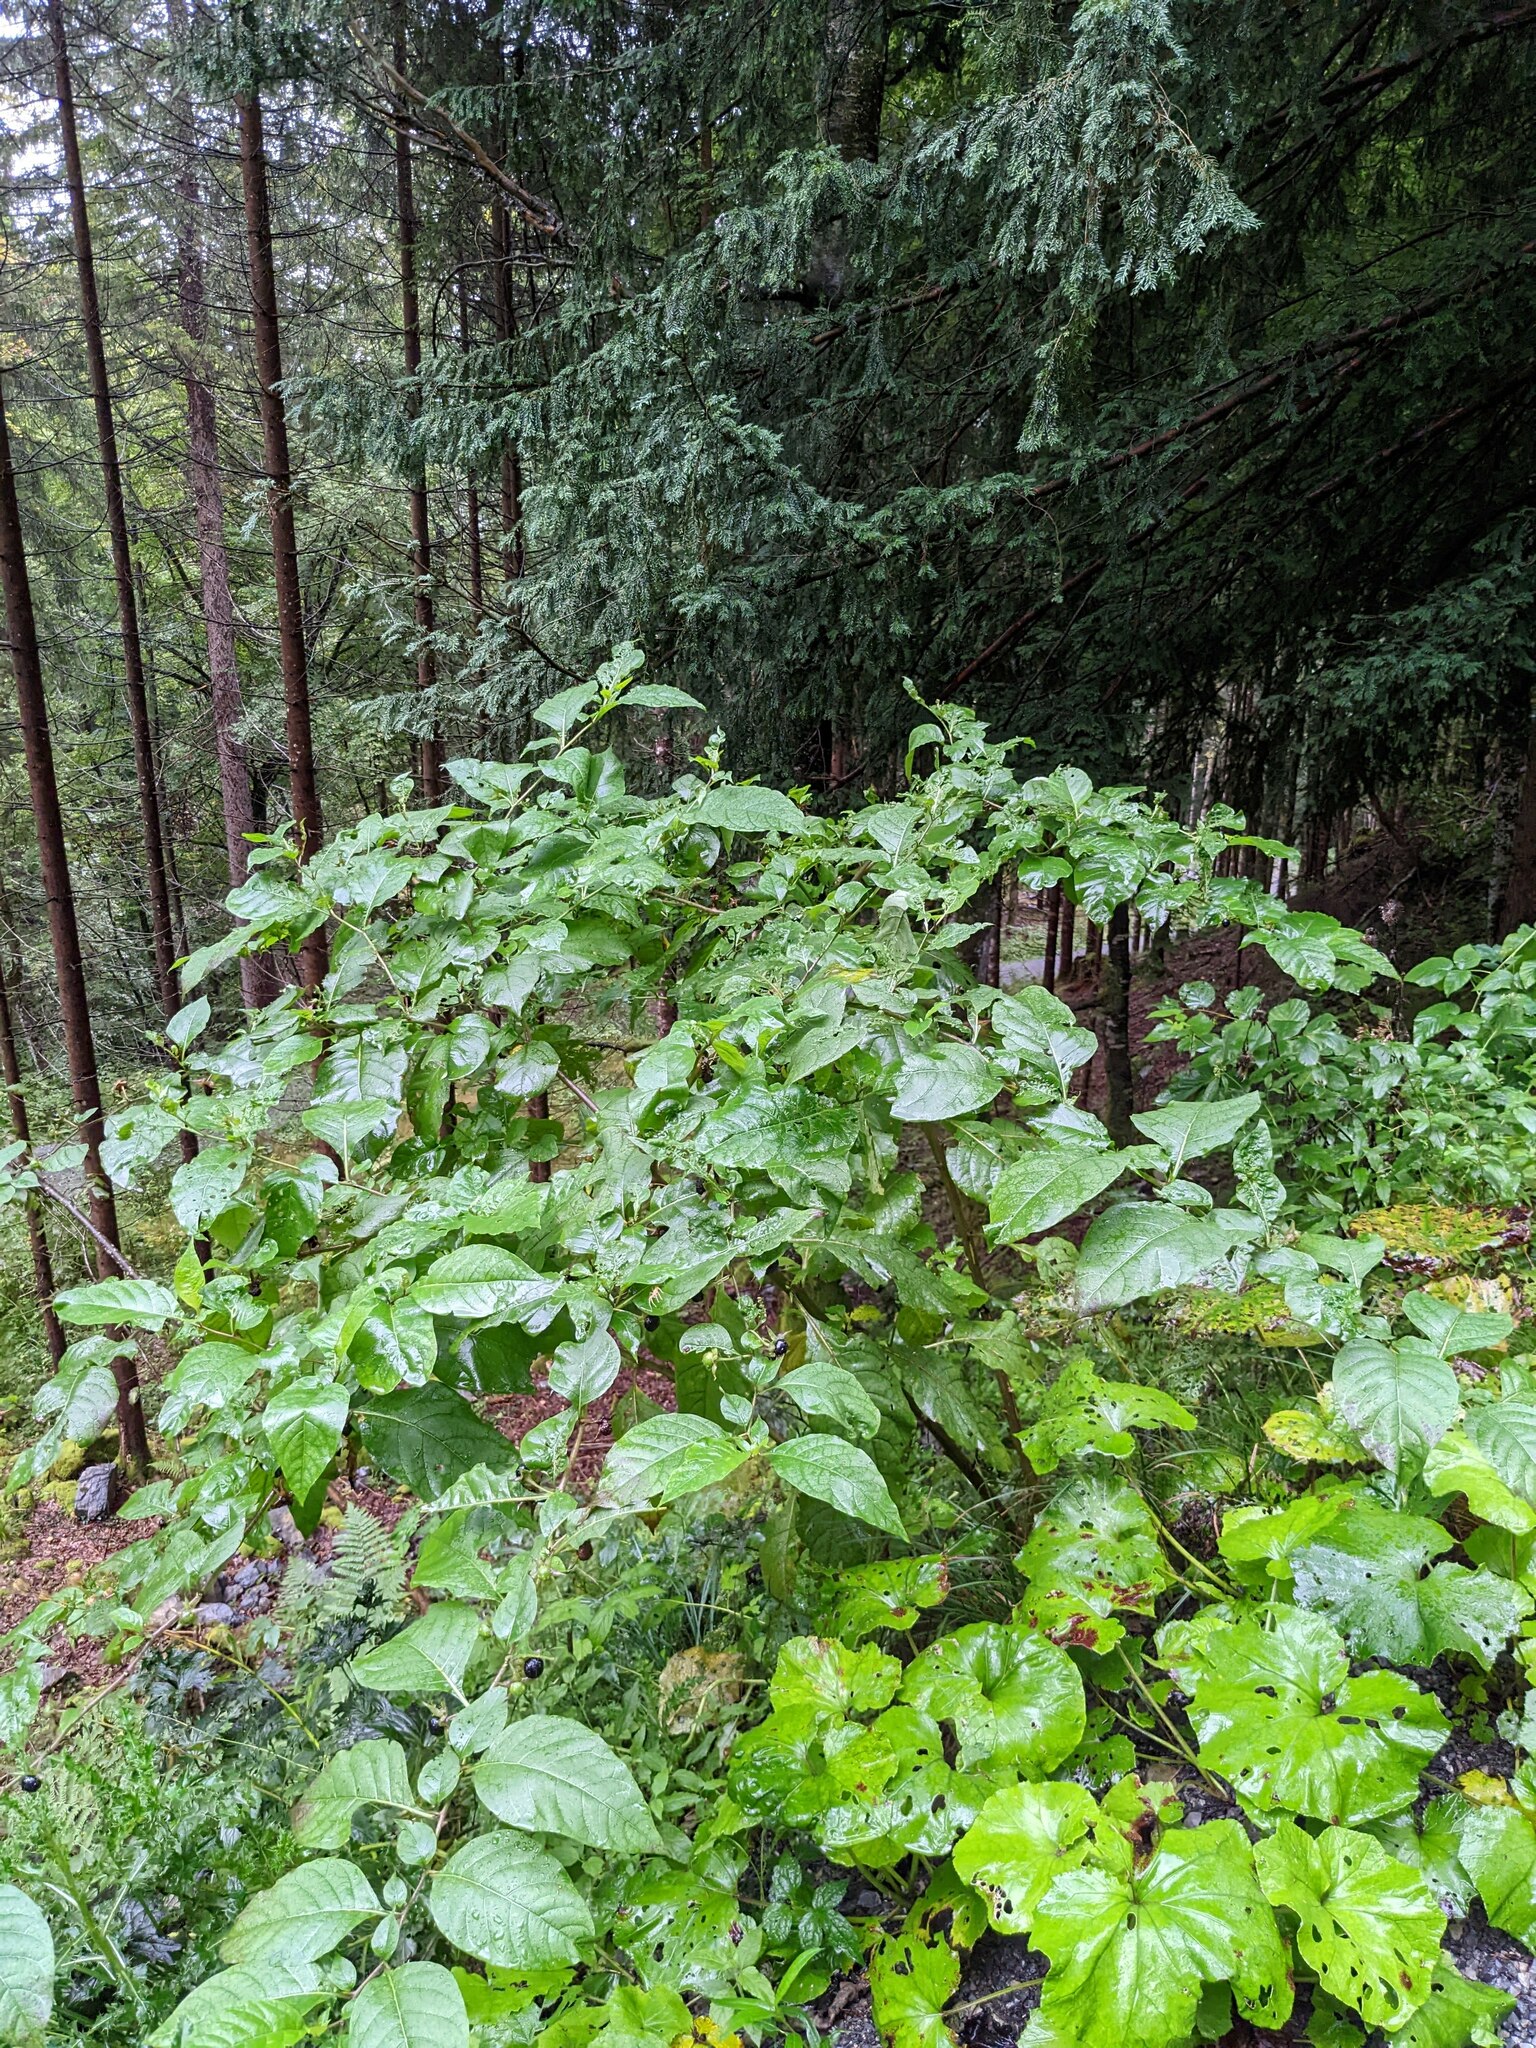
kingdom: Plantae
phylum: Tracheophyta
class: Magnoliopsida
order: Solanales
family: Solanaceae
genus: Atropa
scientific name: Atropa belladonna
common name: Deadly nightshade
